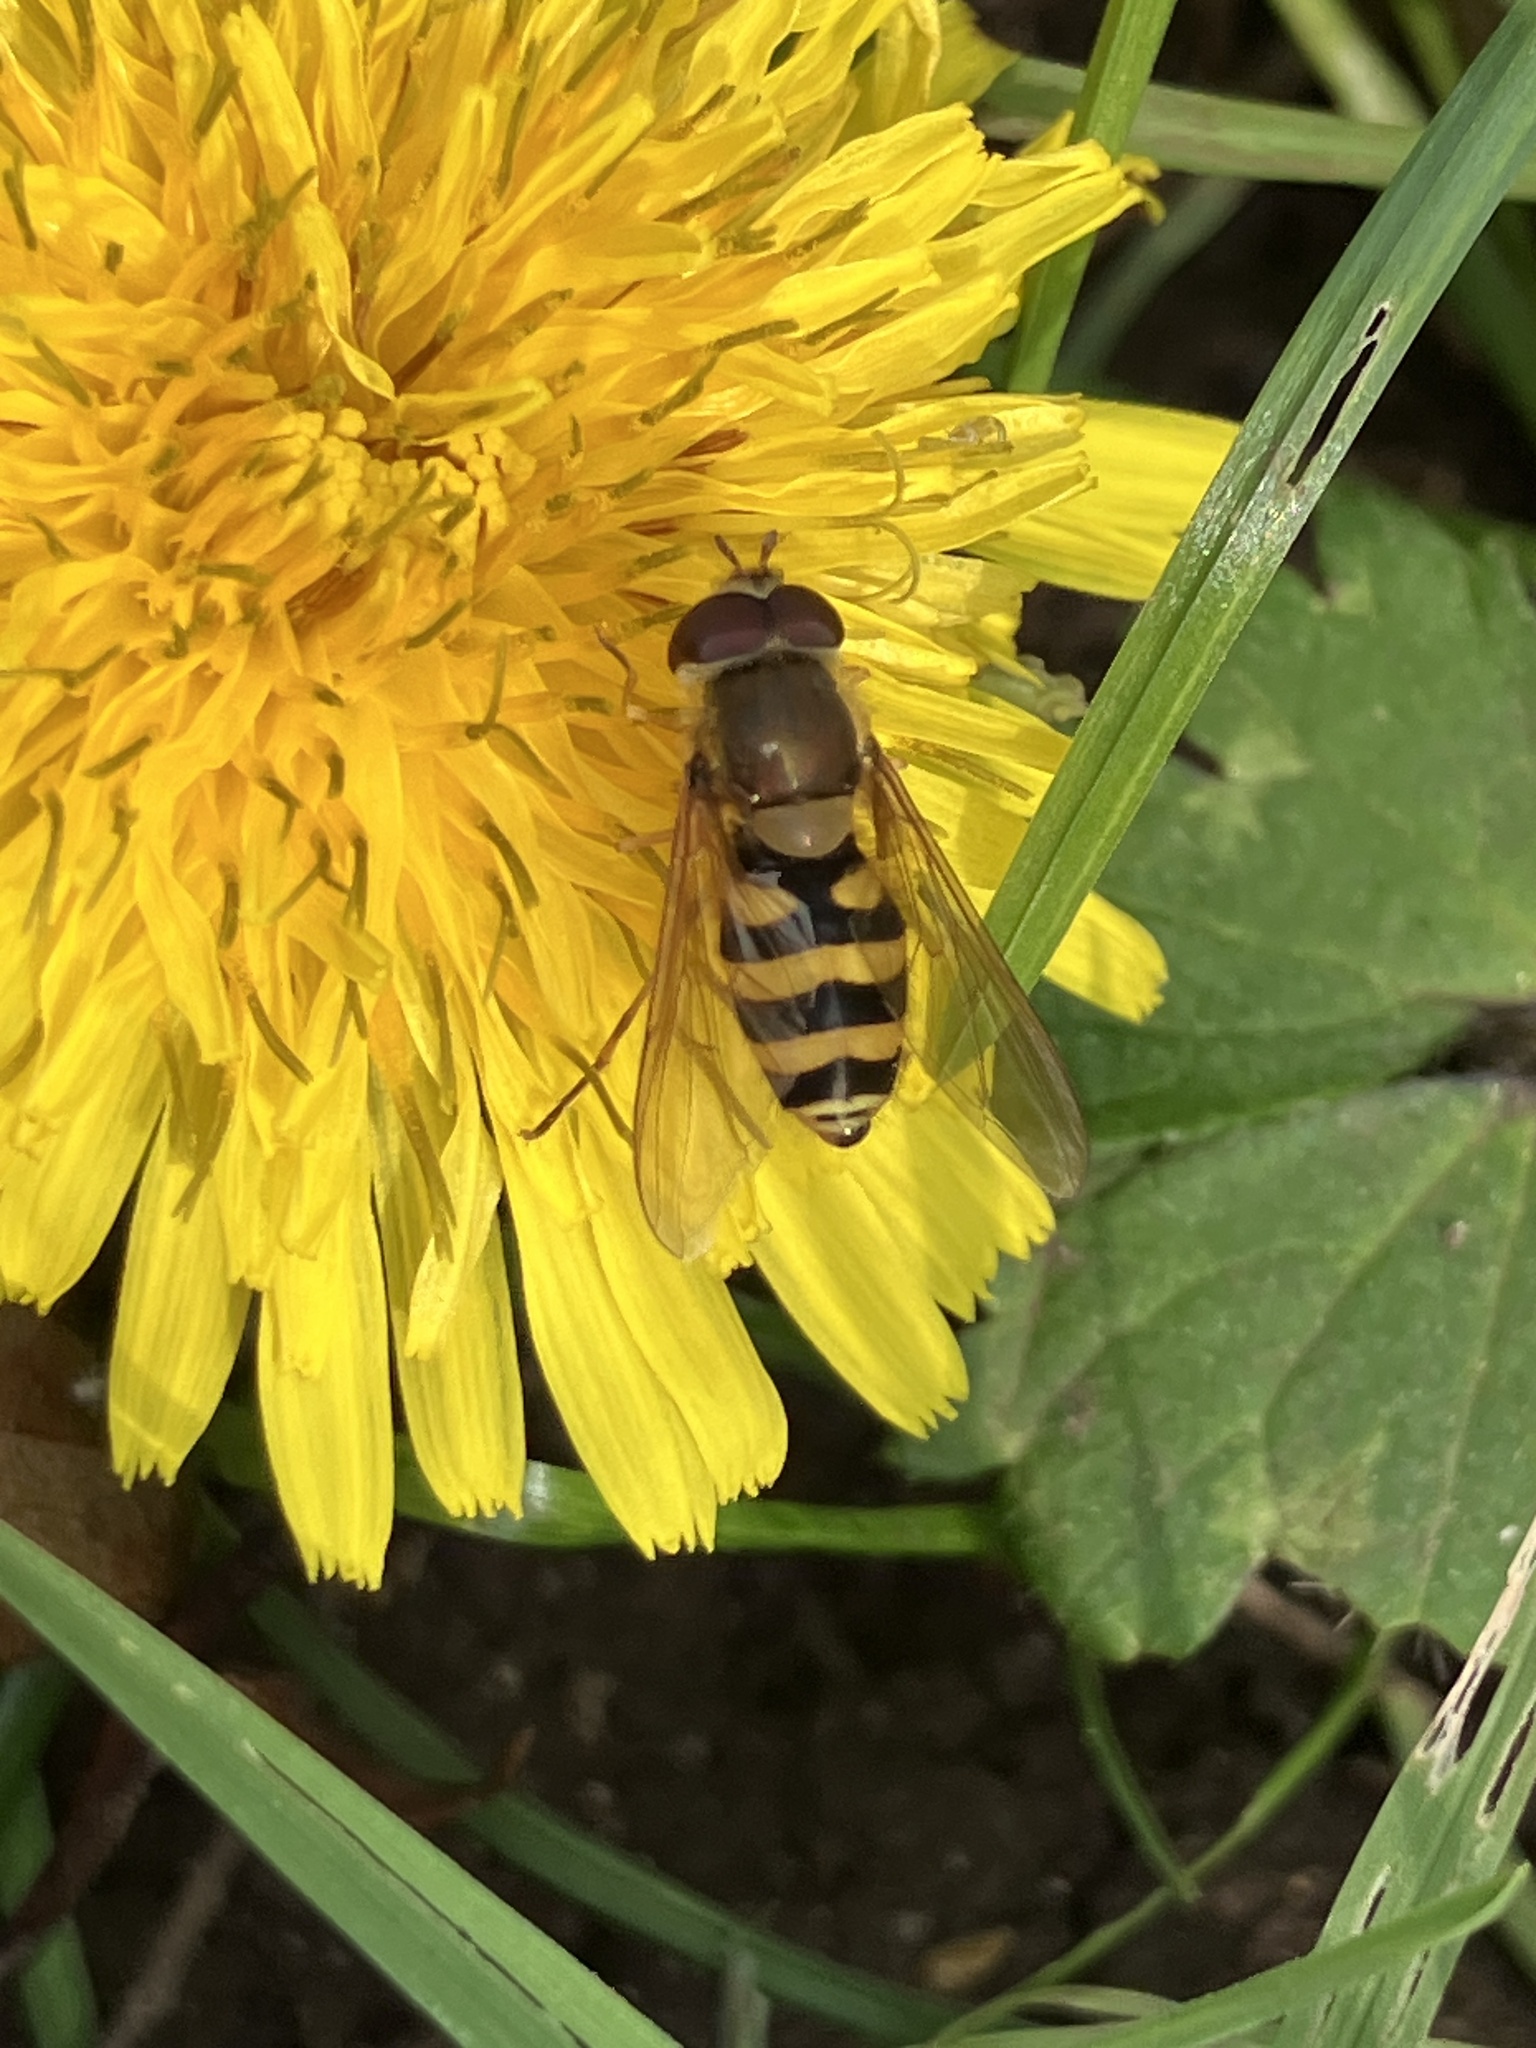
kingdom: Animalia
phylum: Arthropoda
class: Insecta
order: Diptera
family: Syrphidae
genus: Syrphus
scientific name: Syrphus
